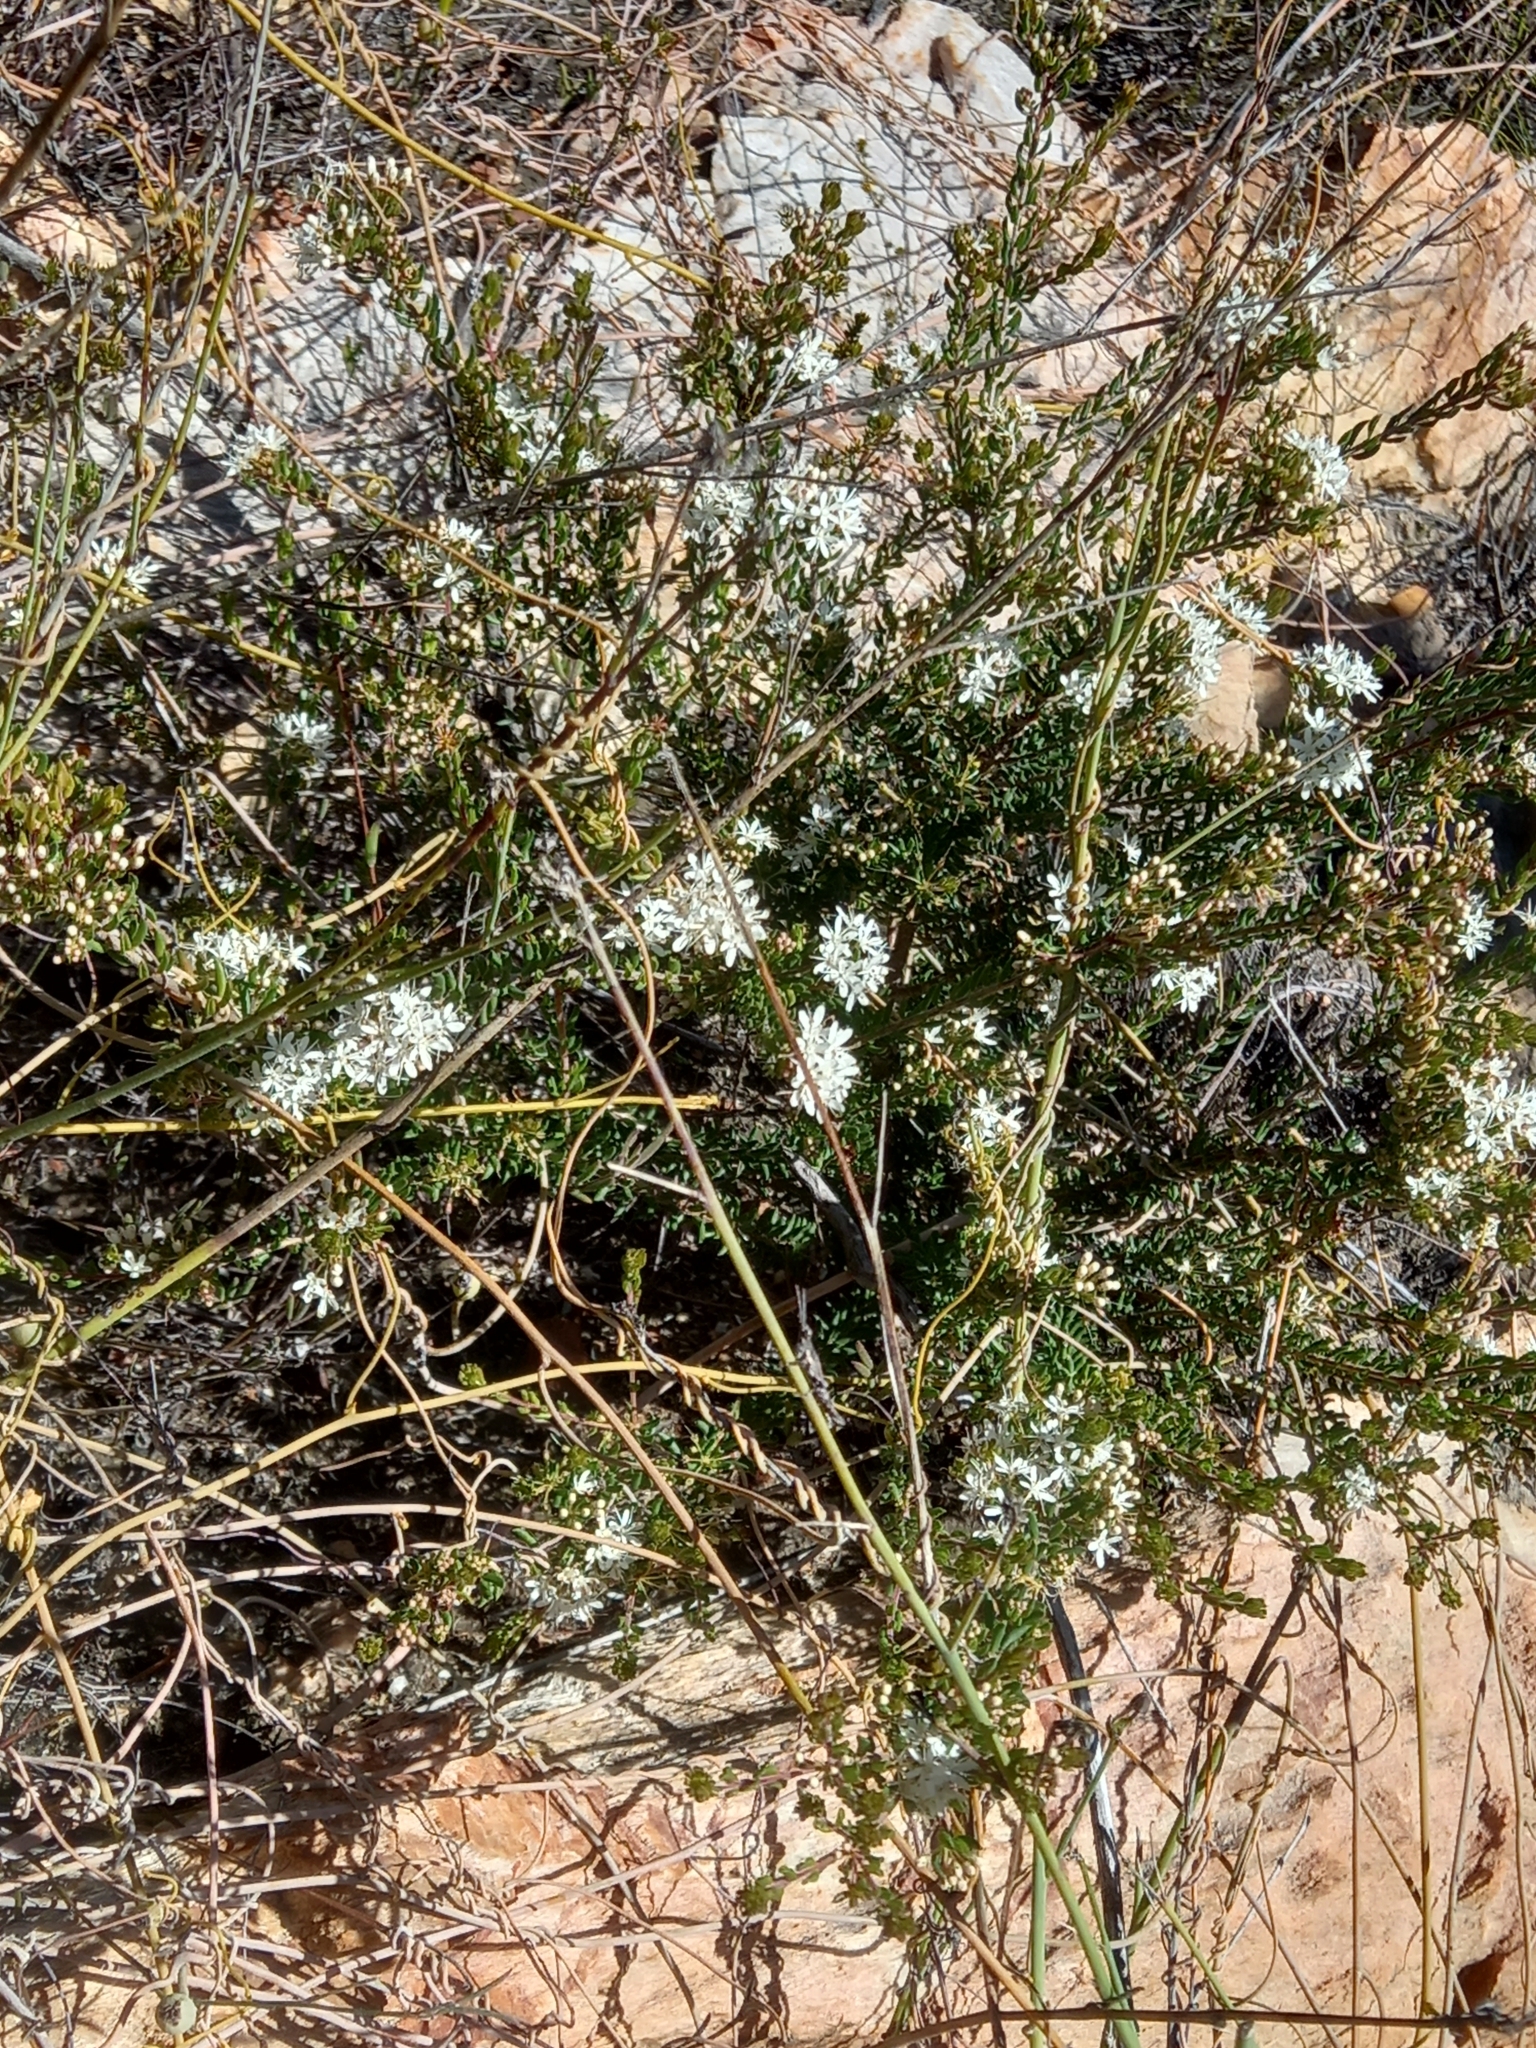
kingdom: Plantae
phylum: Tracheophyta
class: Magnoliopsida
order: Sapindales
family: Rutaceae
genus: Agathosma
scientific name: Agathosma mundtii
